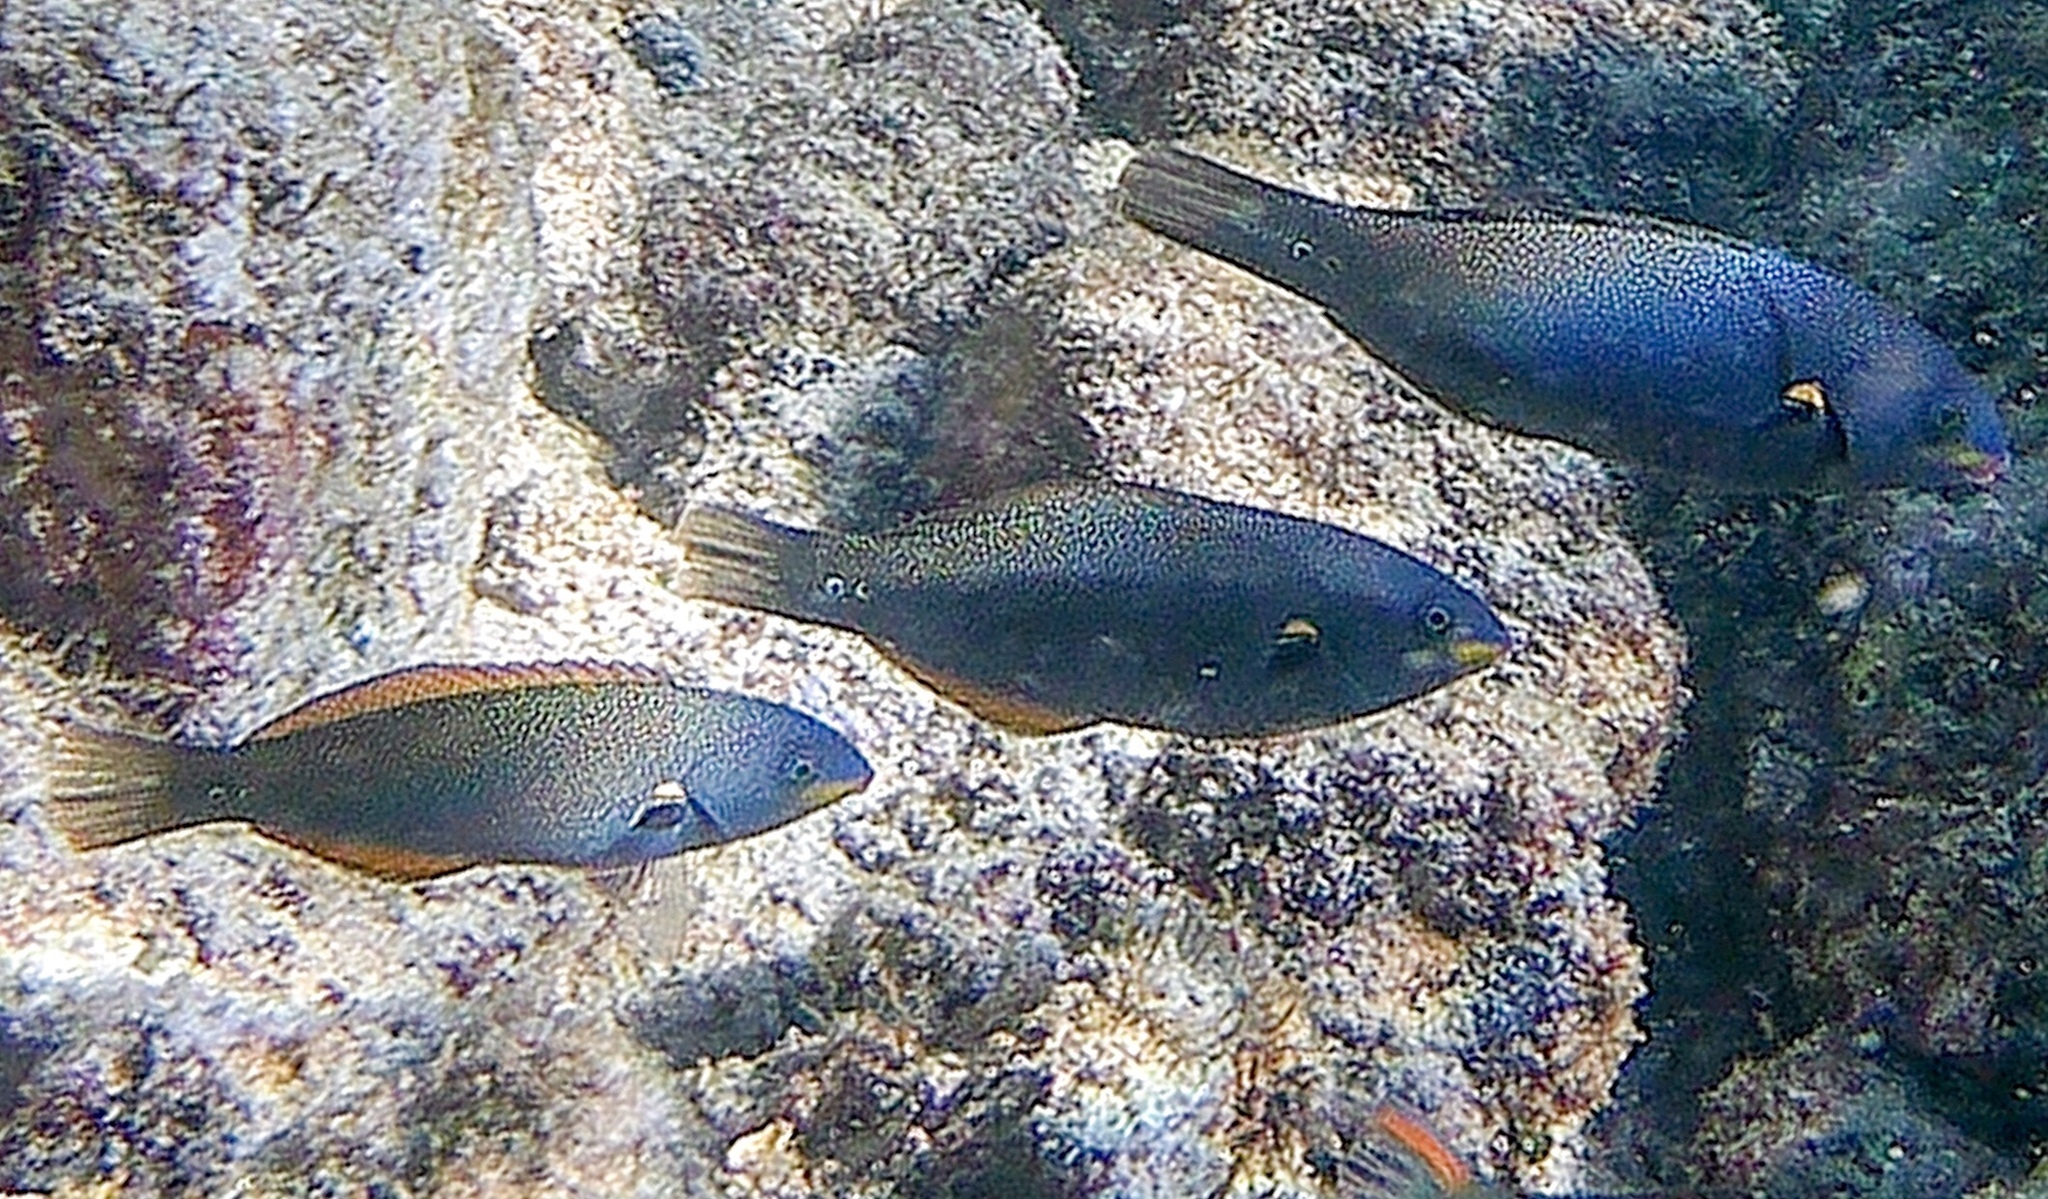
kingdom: Animalia
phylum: Chordata
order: Perciformes
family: Labridae
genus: Stethojulis
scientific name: Stethojulis balteata
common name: Belted wrasse
